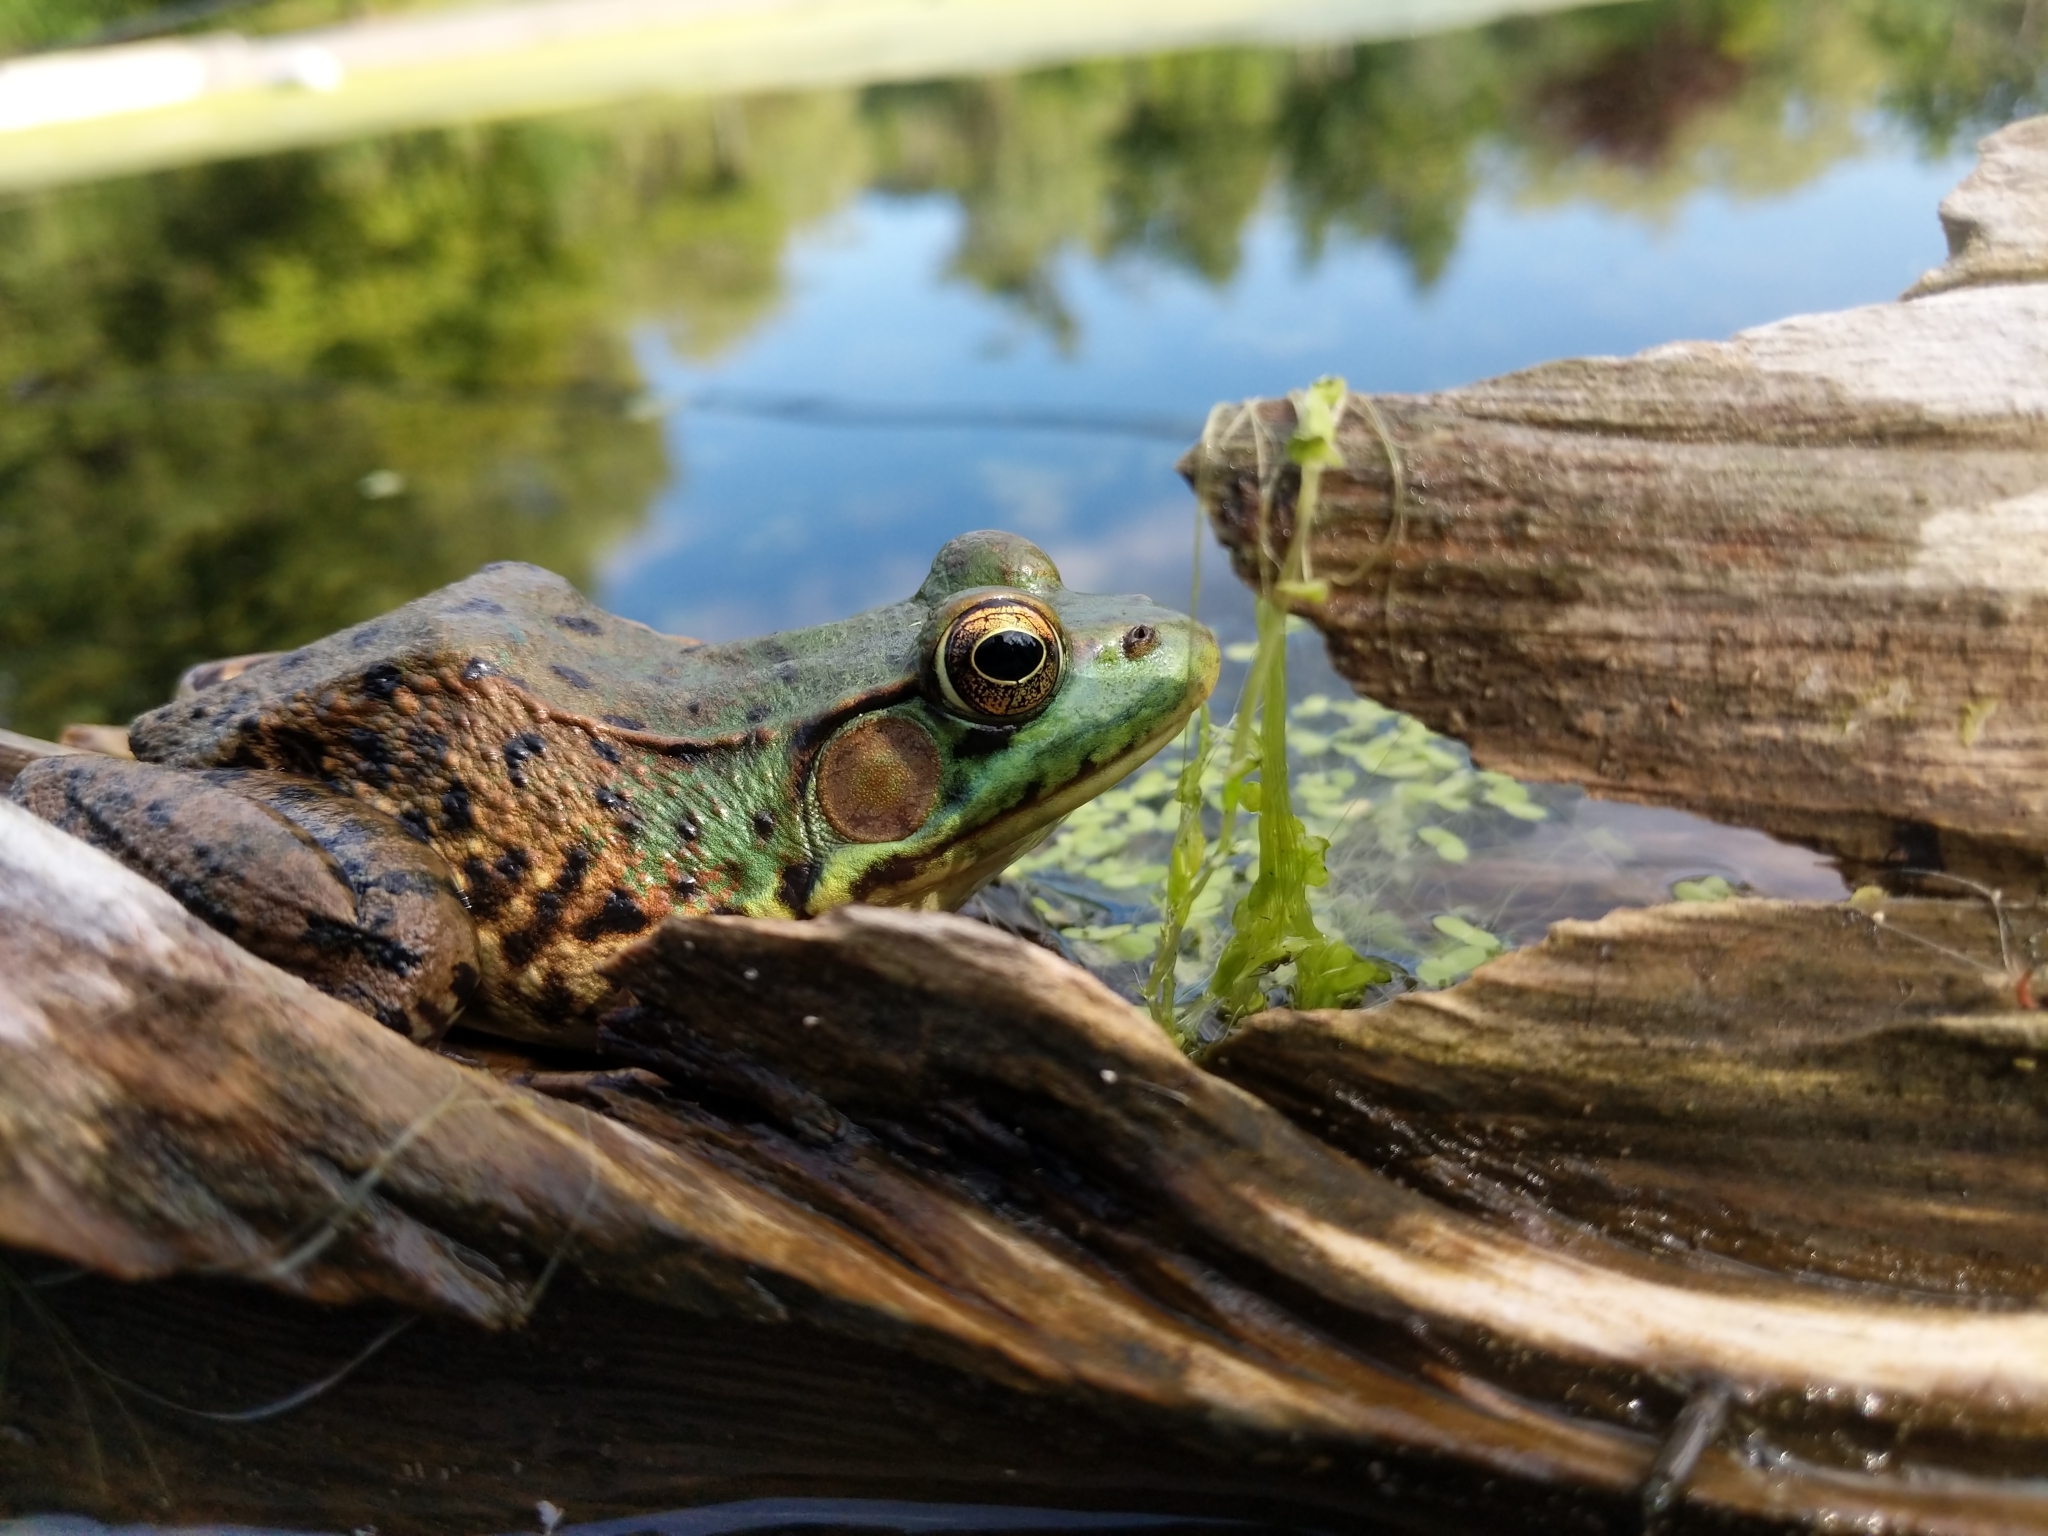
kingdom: Animalia
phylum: Chordata
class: Amphibia
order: Anura
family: Ranidae
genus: Lithobates
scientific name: Lithobates clamitans
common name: Green frog
